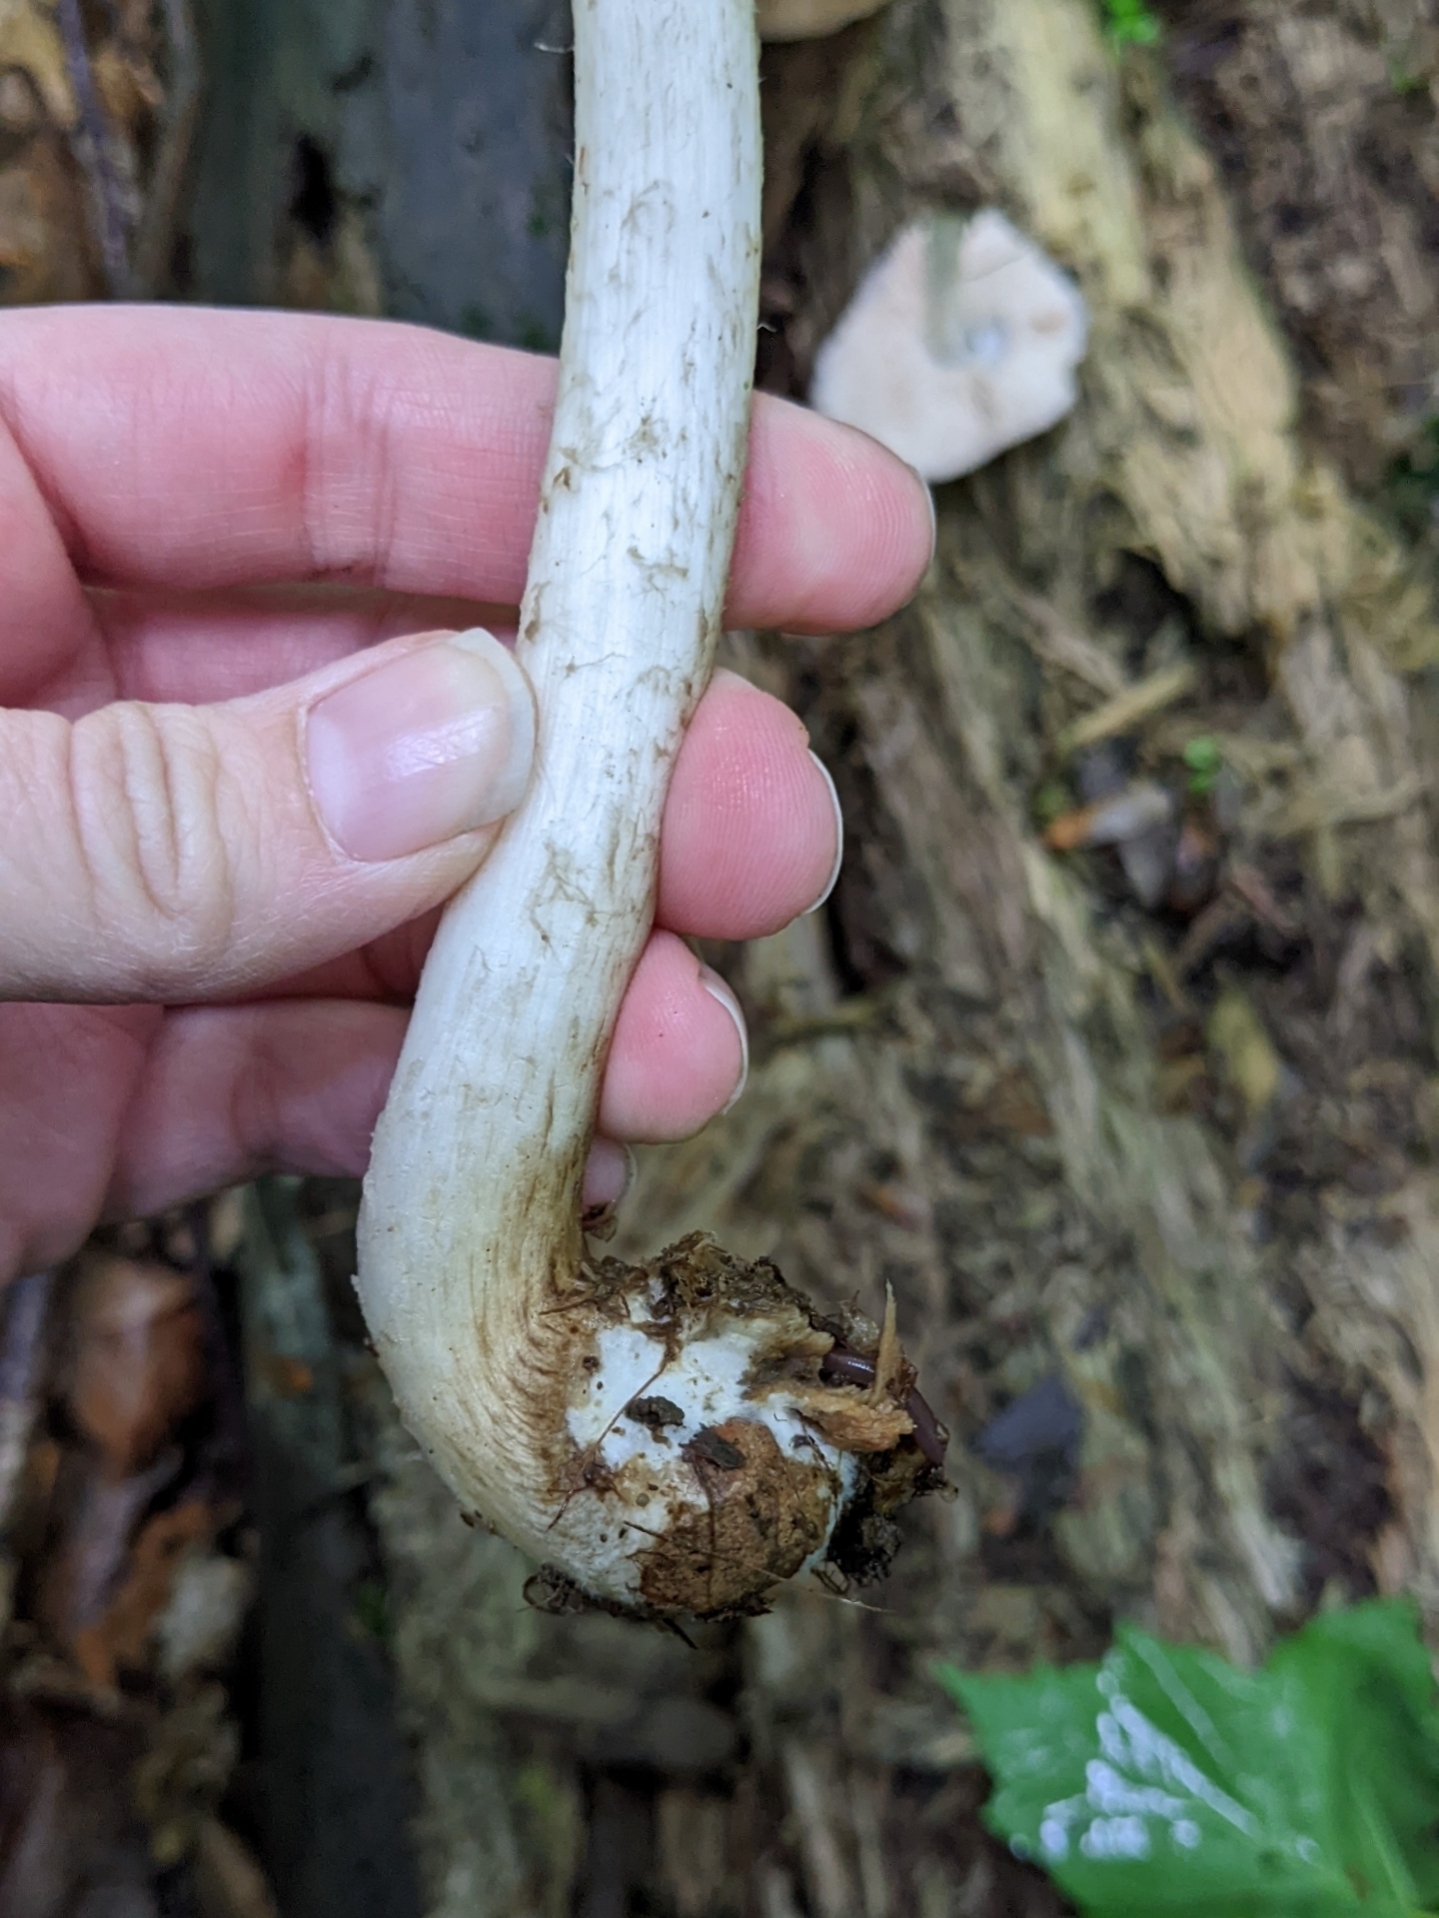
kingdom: Fungi
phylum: Basidiomycota
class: Agaricomycetes
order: Agaricales
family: Pluteaceae
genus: Pluteus
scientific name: Pluteus hongoi
